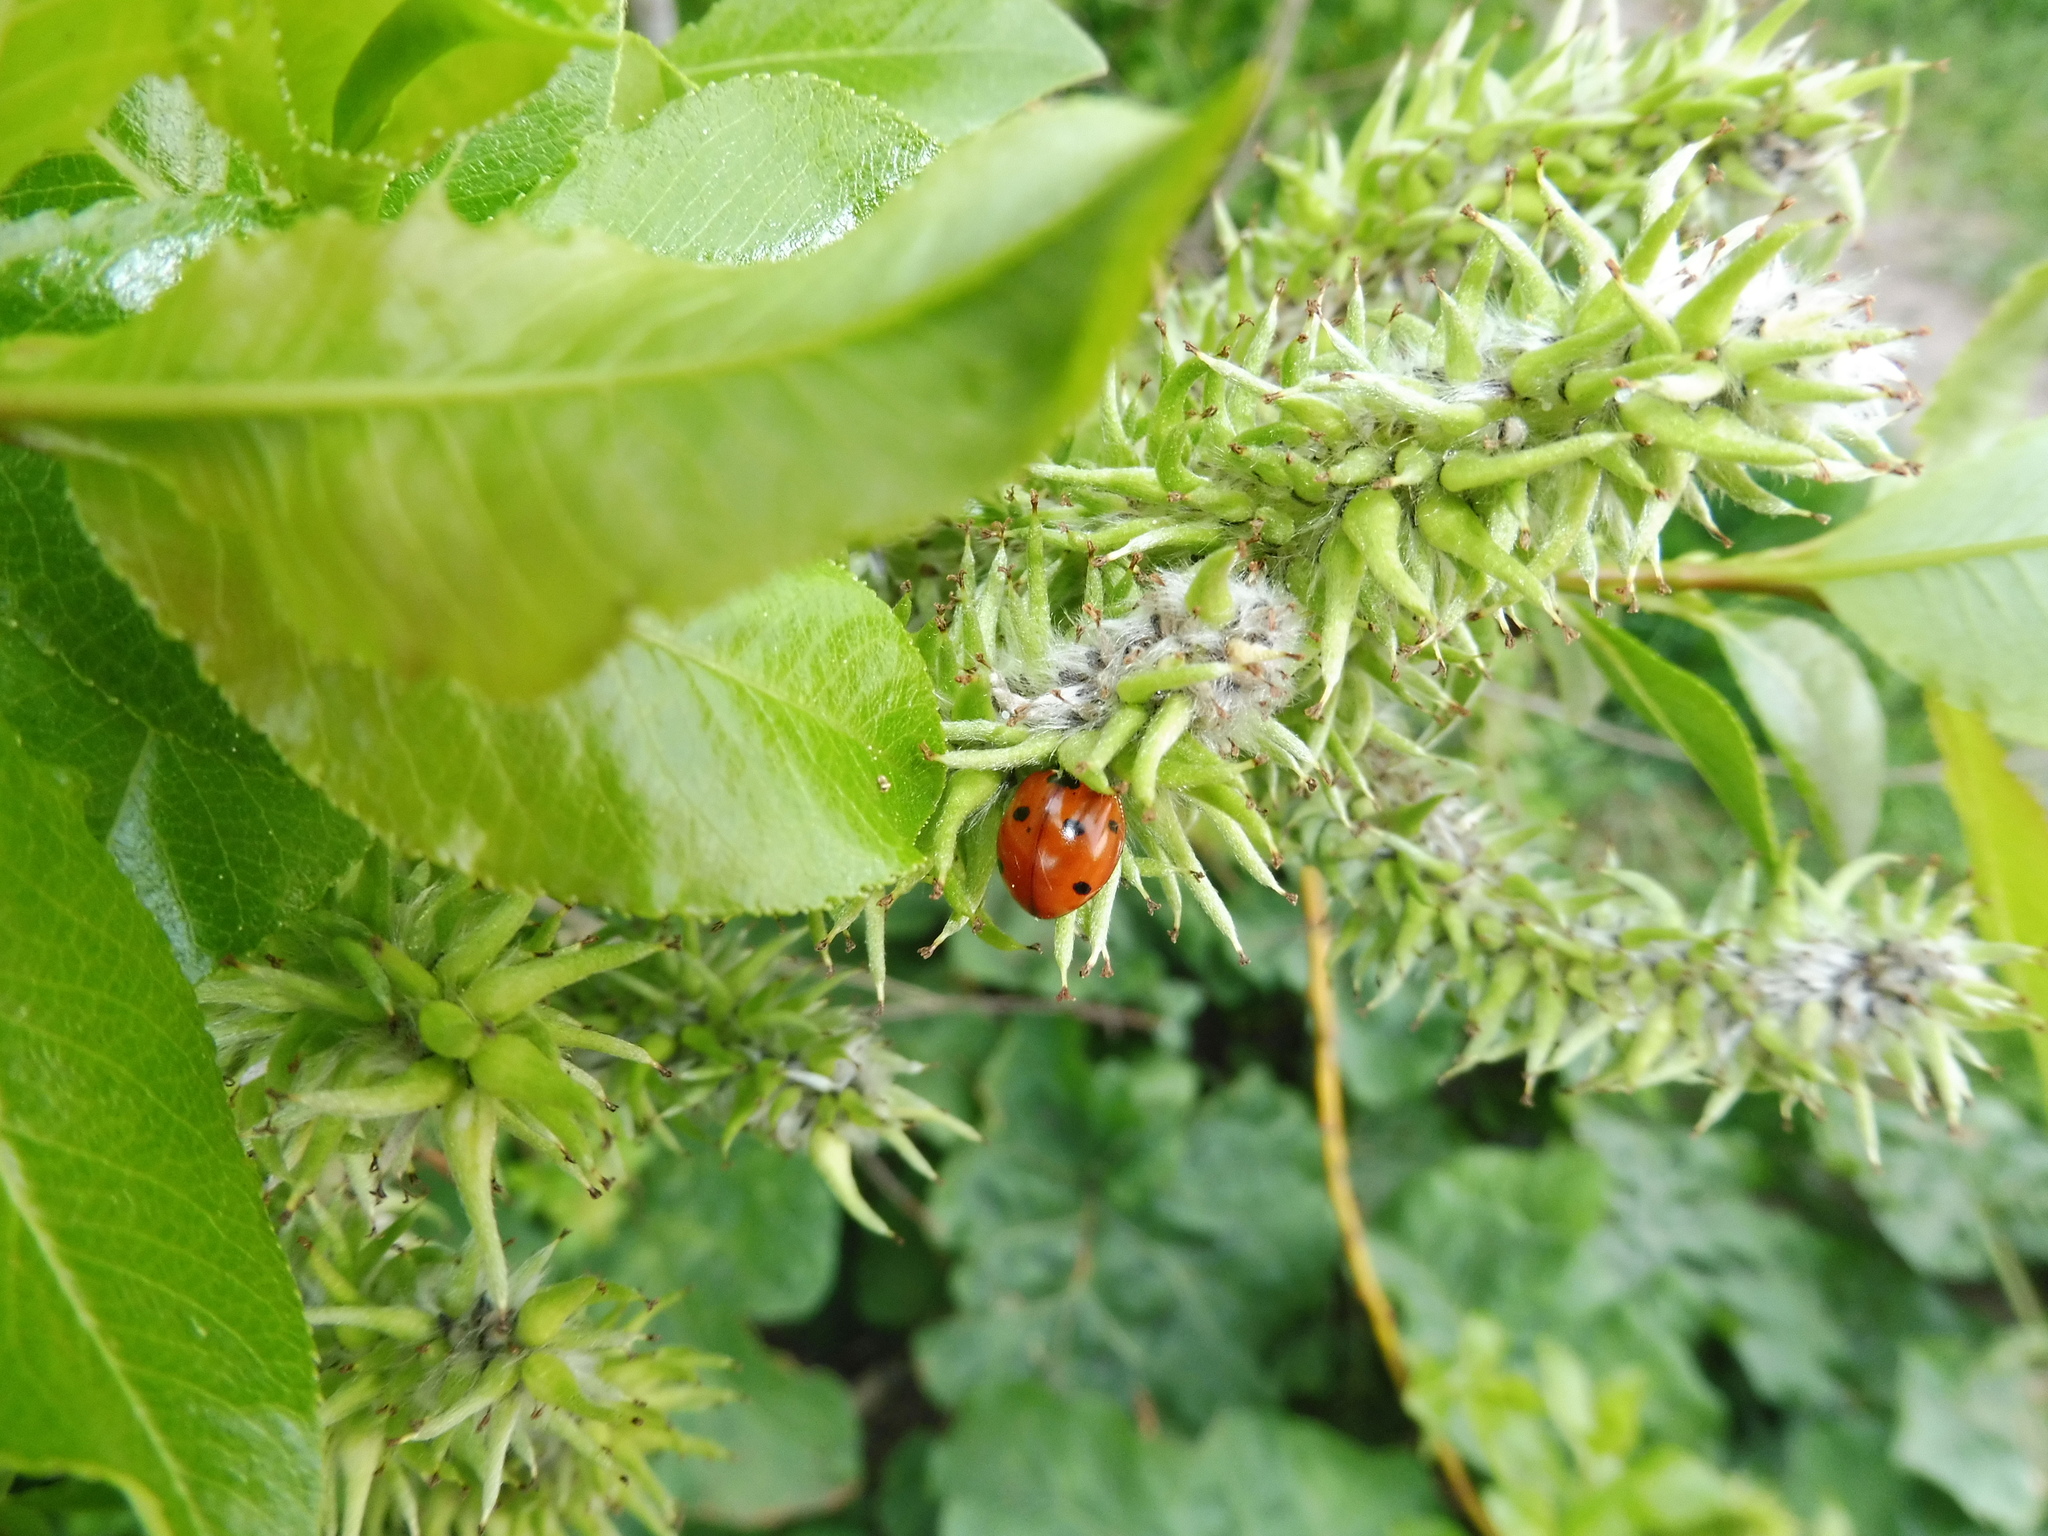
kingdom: Animalia
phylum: Arthropoda
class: Insecta
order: Coleoptera
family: Coccinellidae
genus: Coccinella
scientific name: Coccinella septempunctata
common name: Sevenspotted lady beetle
